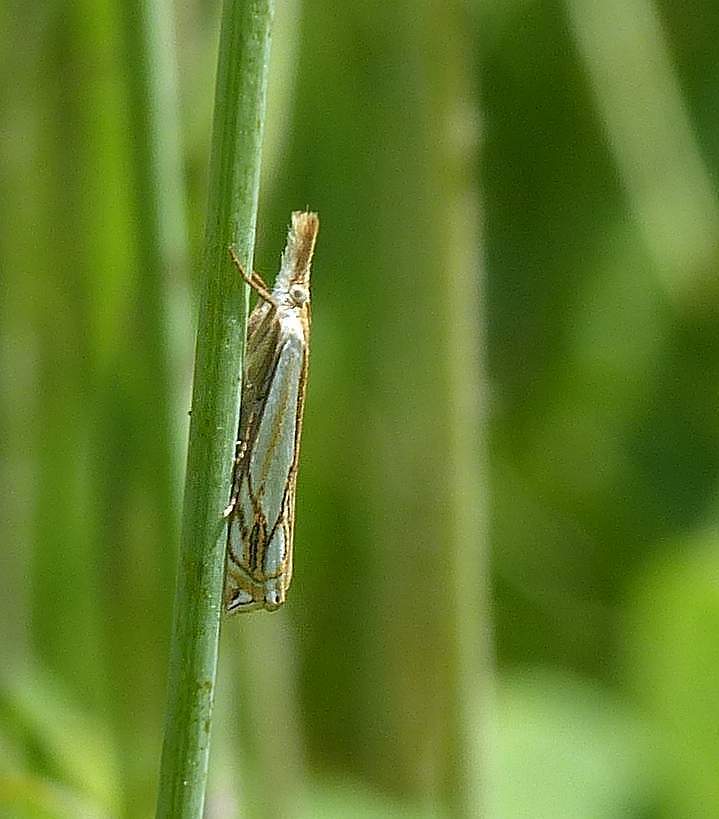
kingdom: Animalia
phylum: Arthropoda
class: Insecta
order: Lepidoptera
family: Crambidae
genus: Crambus
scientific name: Crambus agitatellus
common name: Double-banded grass-veneer
